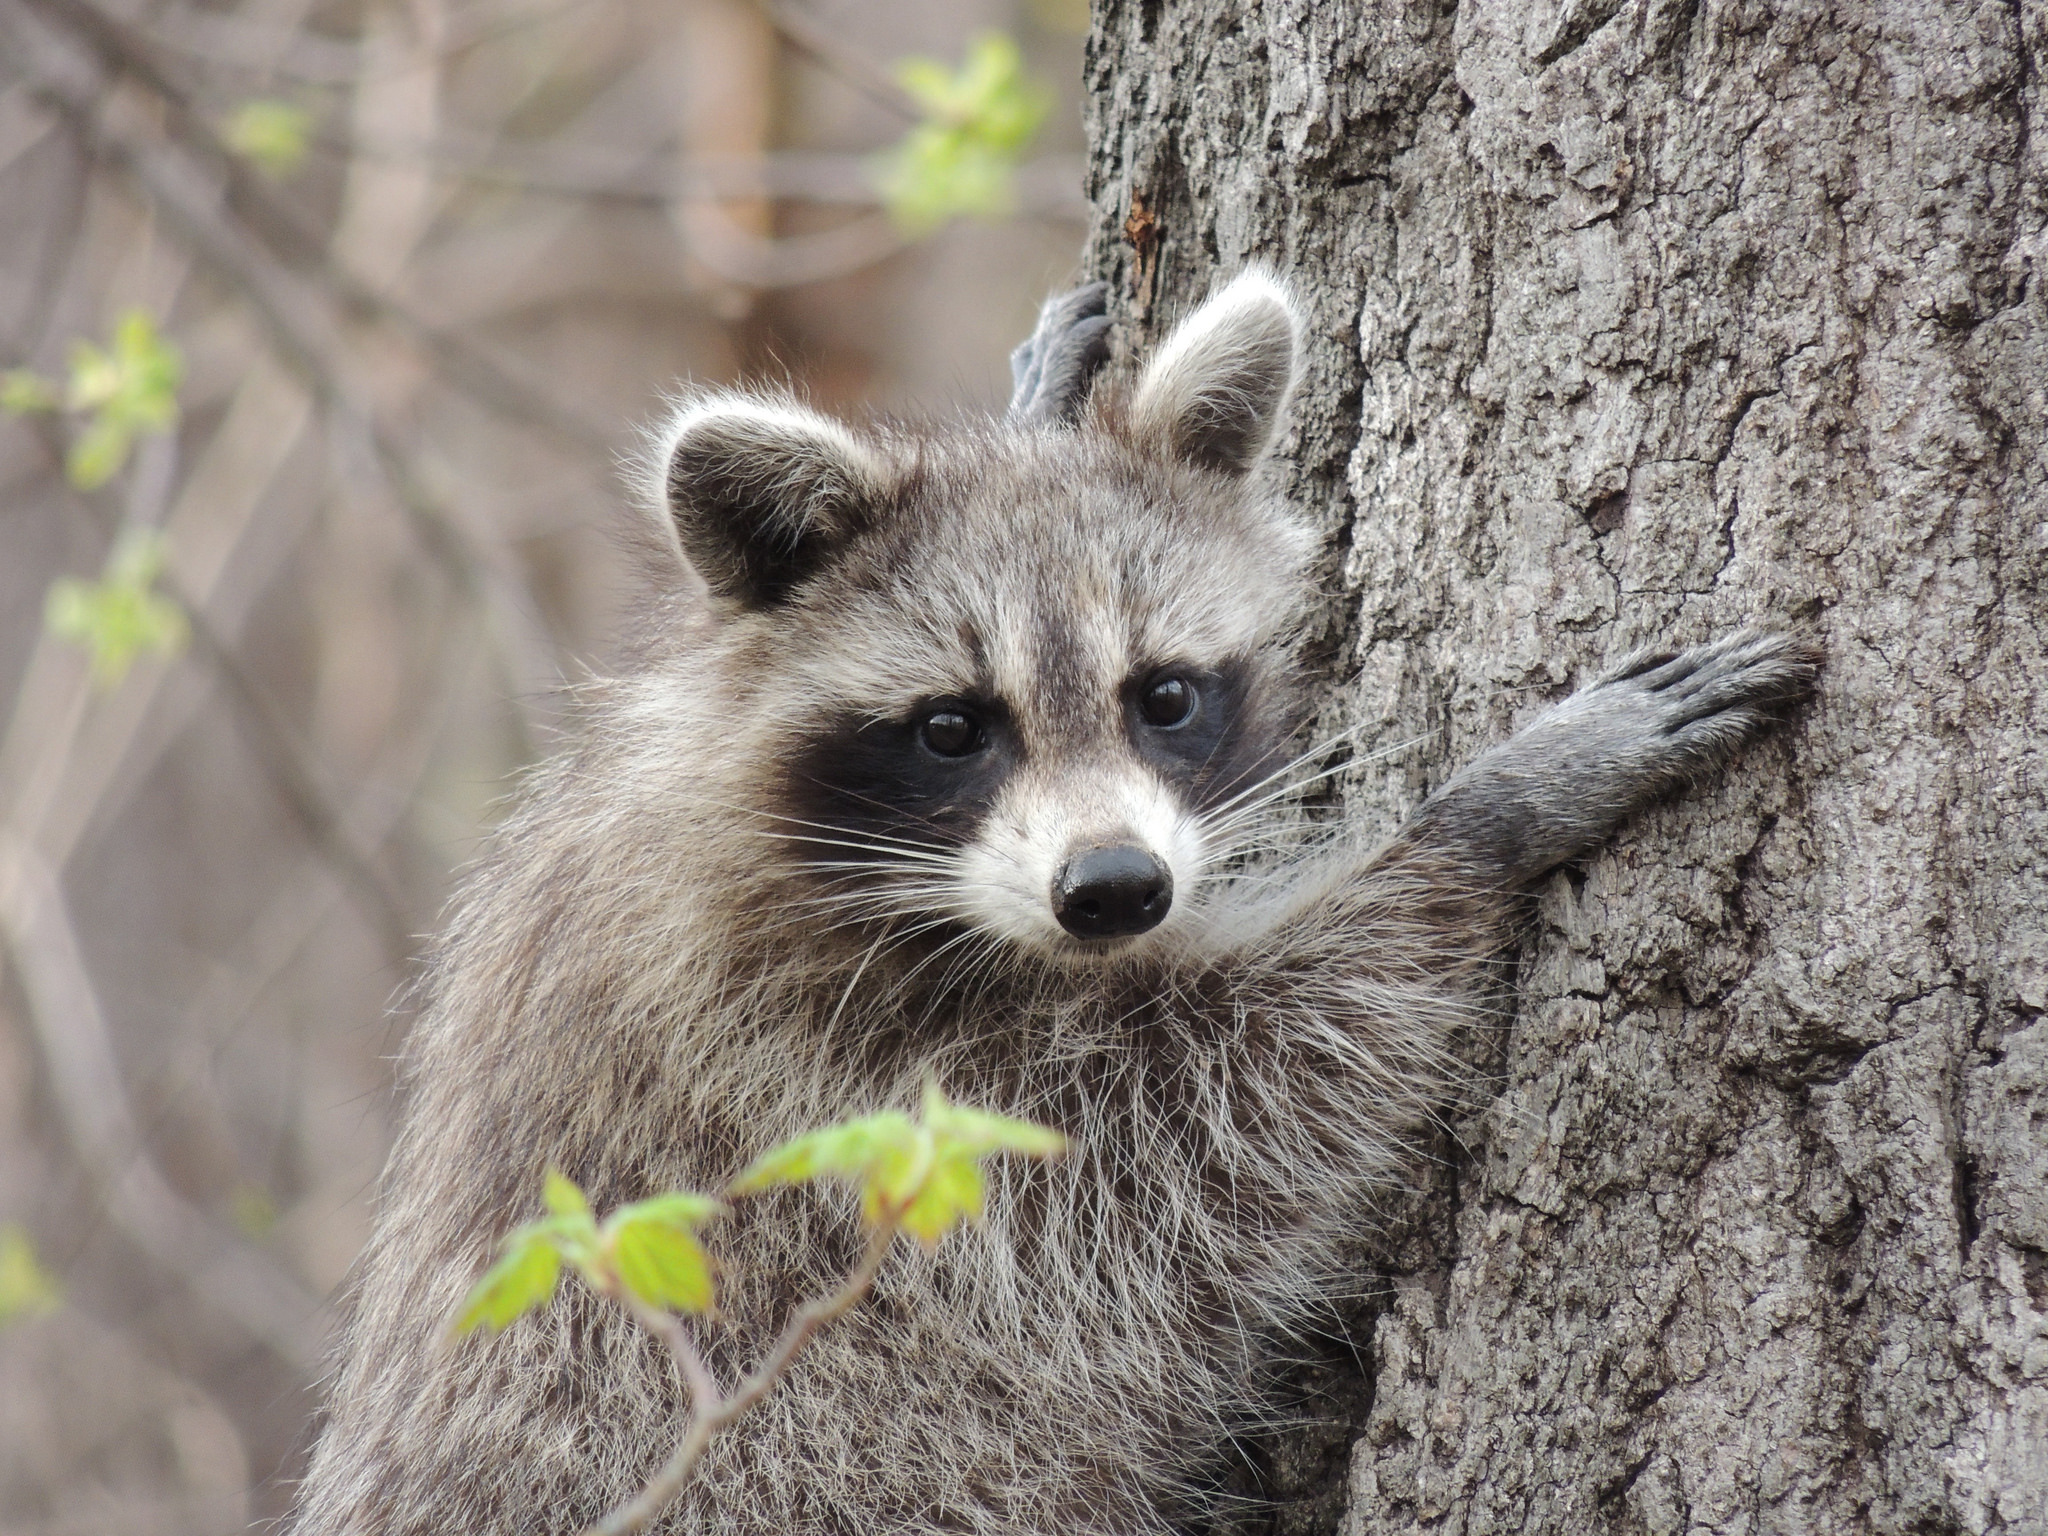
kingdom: Animalia
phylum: Chordata
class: Mammalia
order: Carnivora
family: Procyonidae
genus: Procyon
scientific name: Procyon lotor
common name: Raccoon
